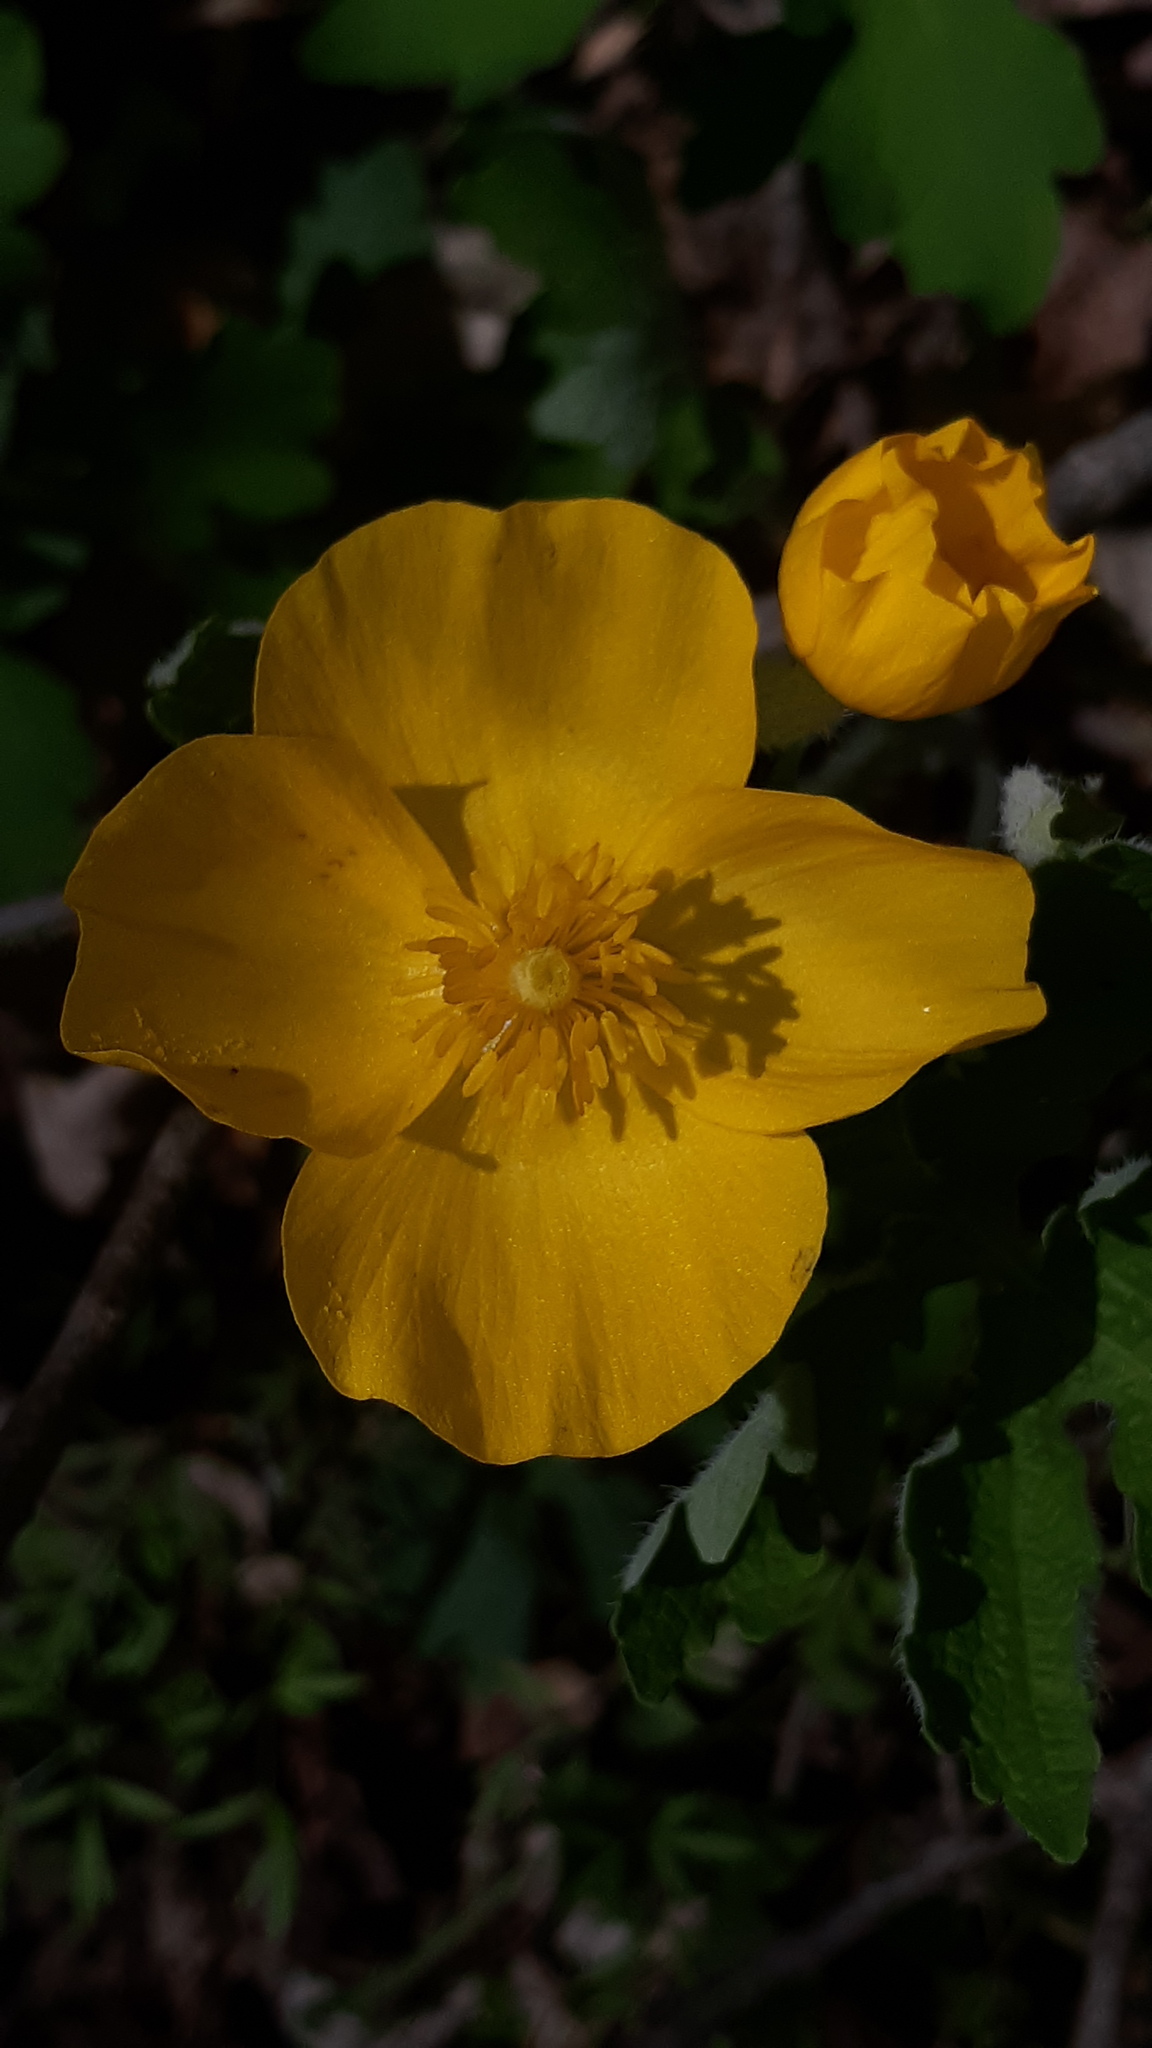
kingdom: Plantae
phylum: Tracheophyta
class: Magnoliopsida
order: Ranunculales
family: Papaveraceae
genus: Stylophorum
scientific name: Stylophorum diphyllum
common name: Celandine poppy
